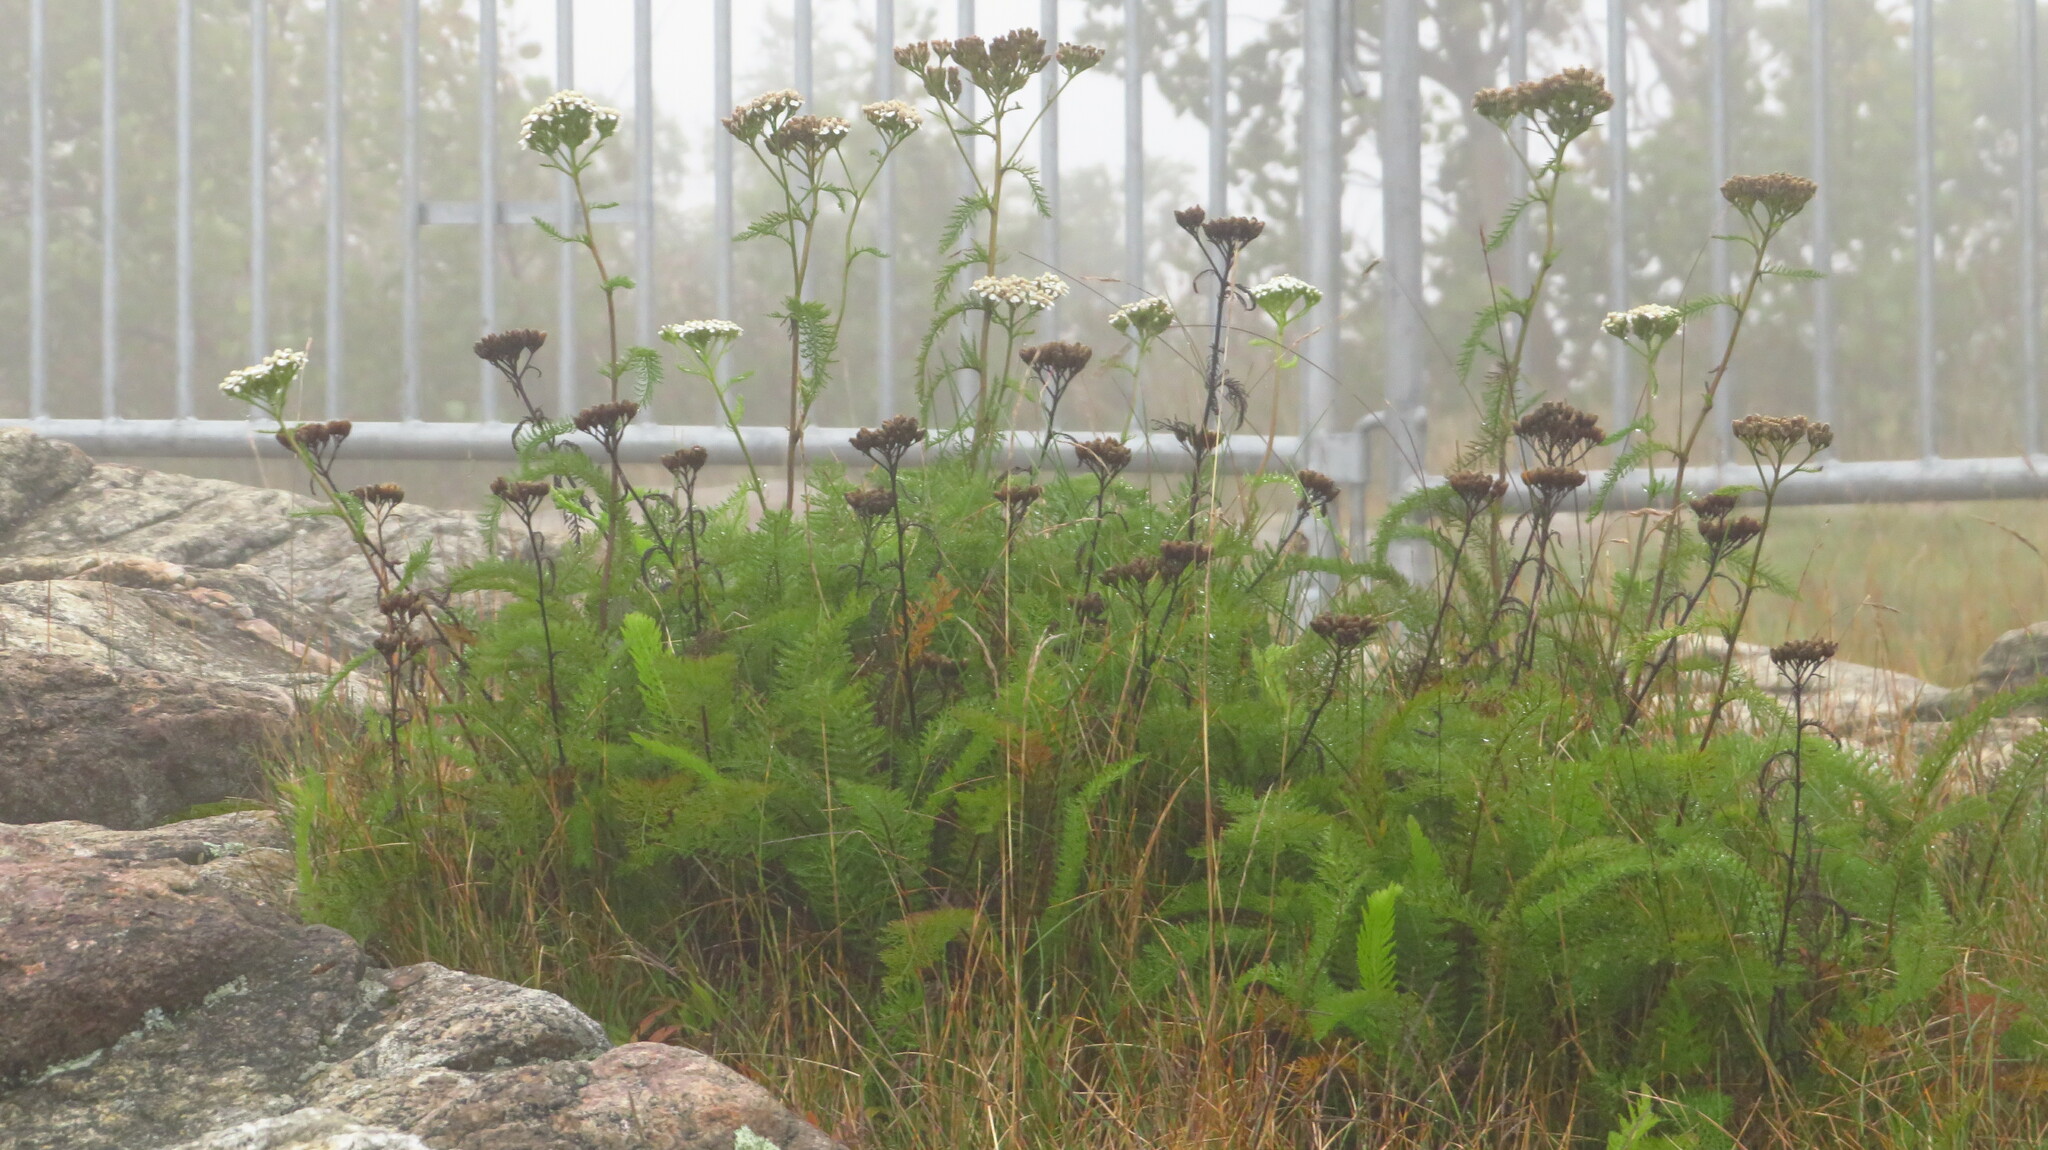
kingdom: Plantae
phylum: Tracheophyta
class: Magnoliopsida
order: Asterales
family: Asteraceae
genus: Achillea
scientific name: Achillea millefolium
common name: Yarrow
